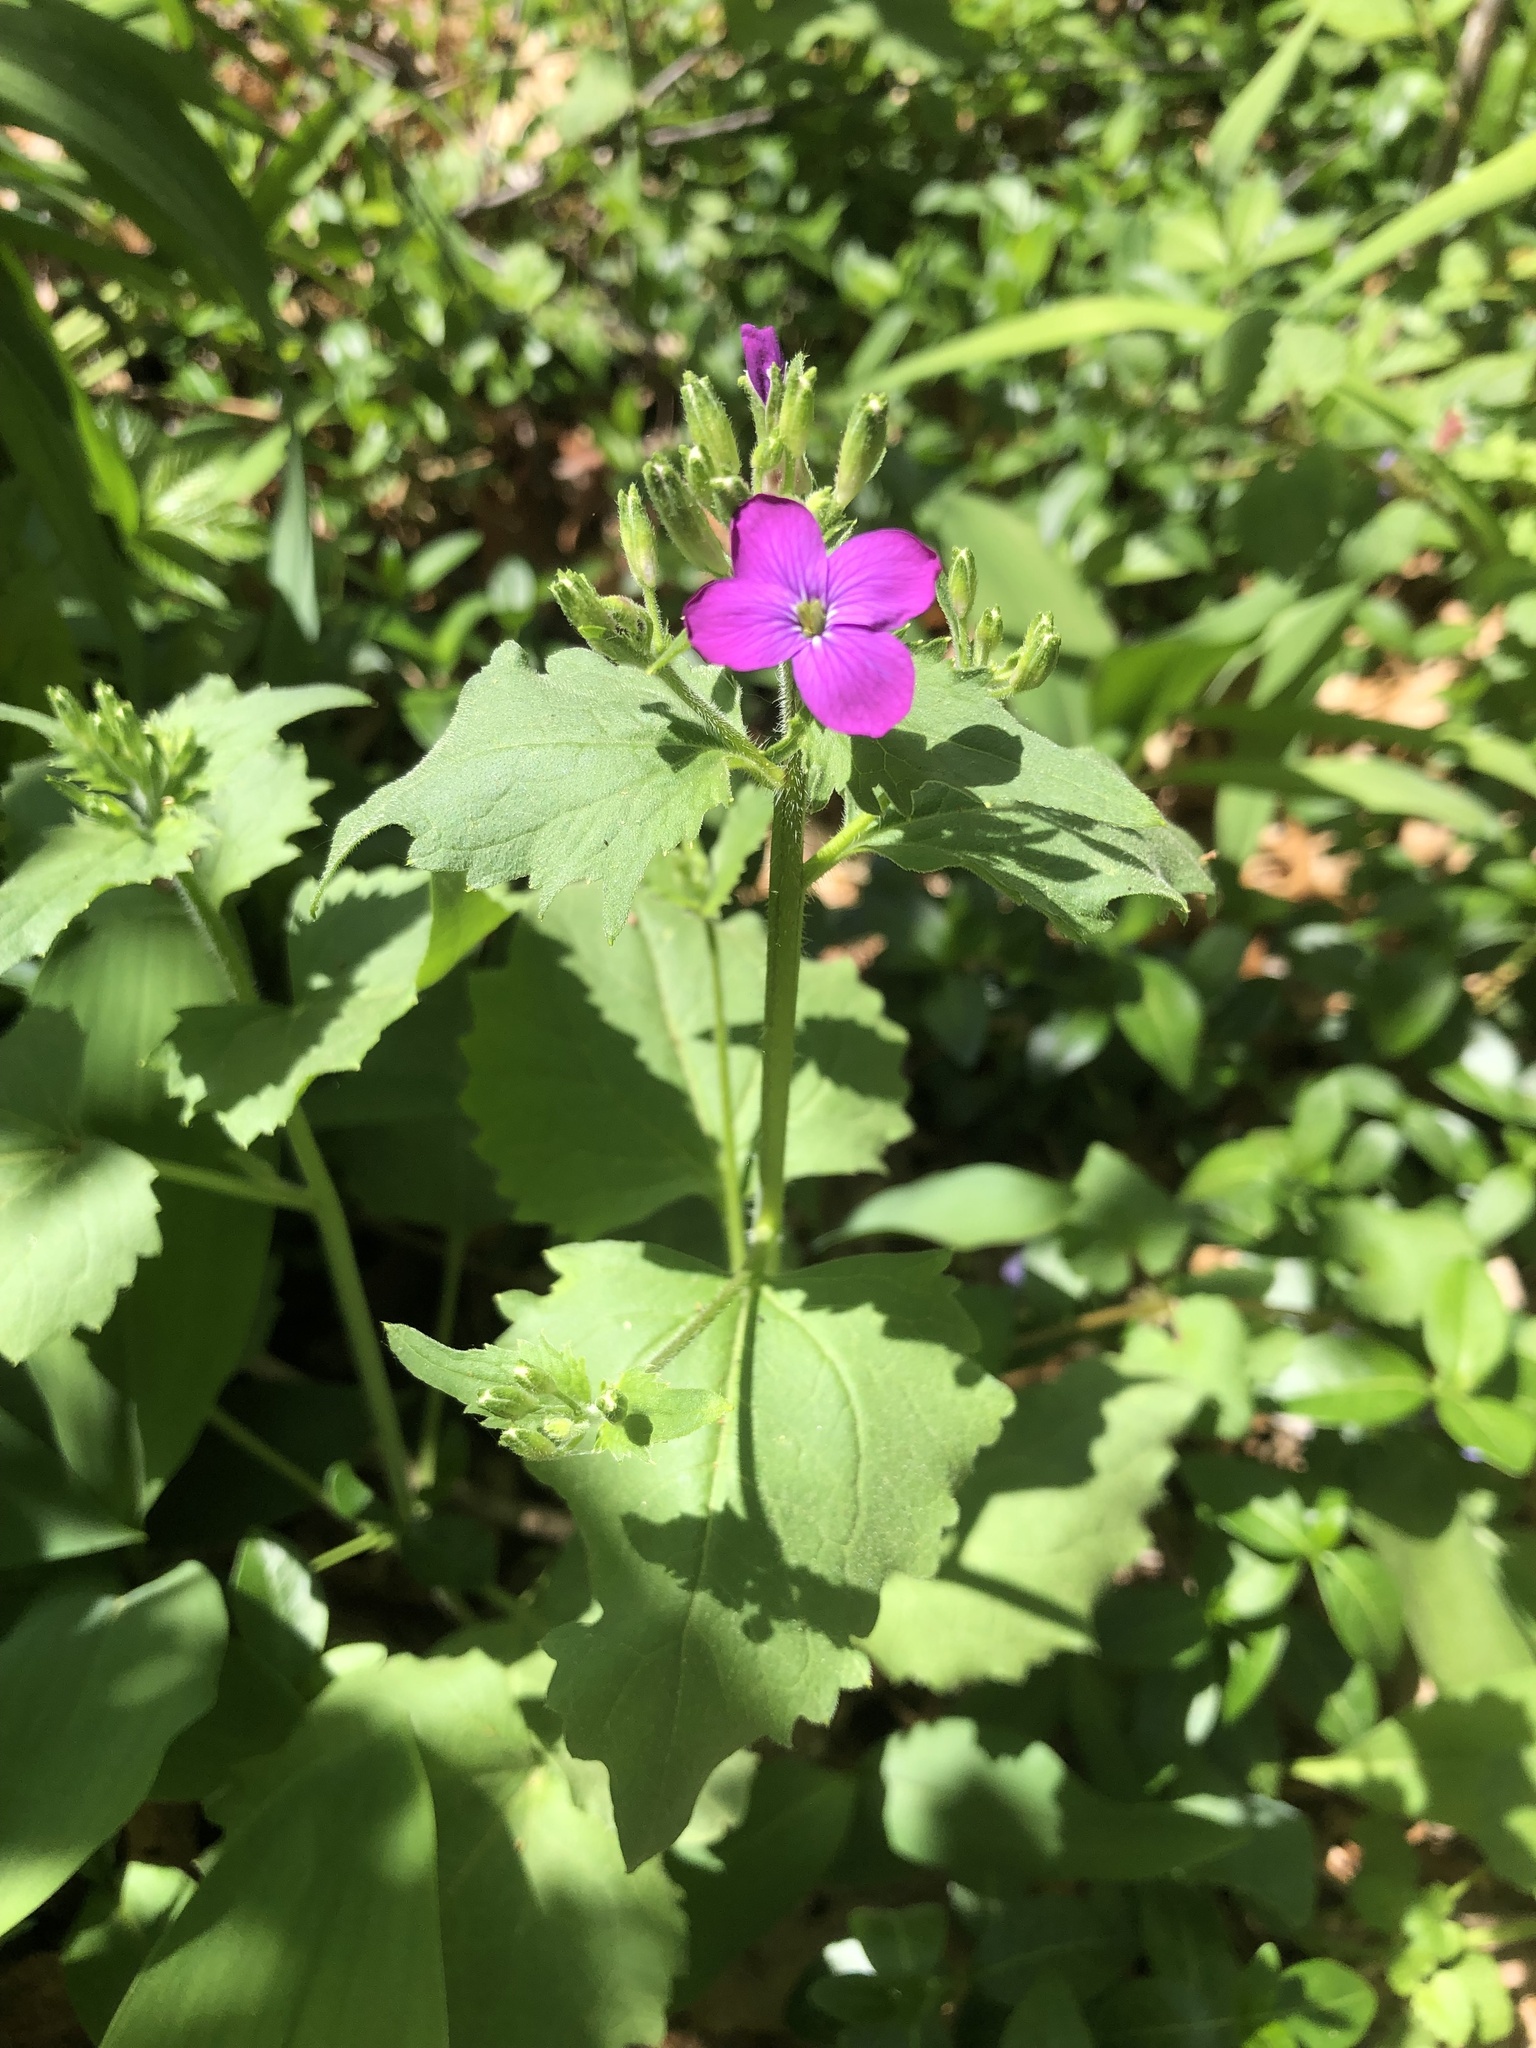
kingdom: Plantae
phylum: Tracheophyta
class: Magnoliopsida
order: Brassicales
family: Brassicaceae
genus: Lunaria
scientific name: Lunaria annua
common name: Honesty
